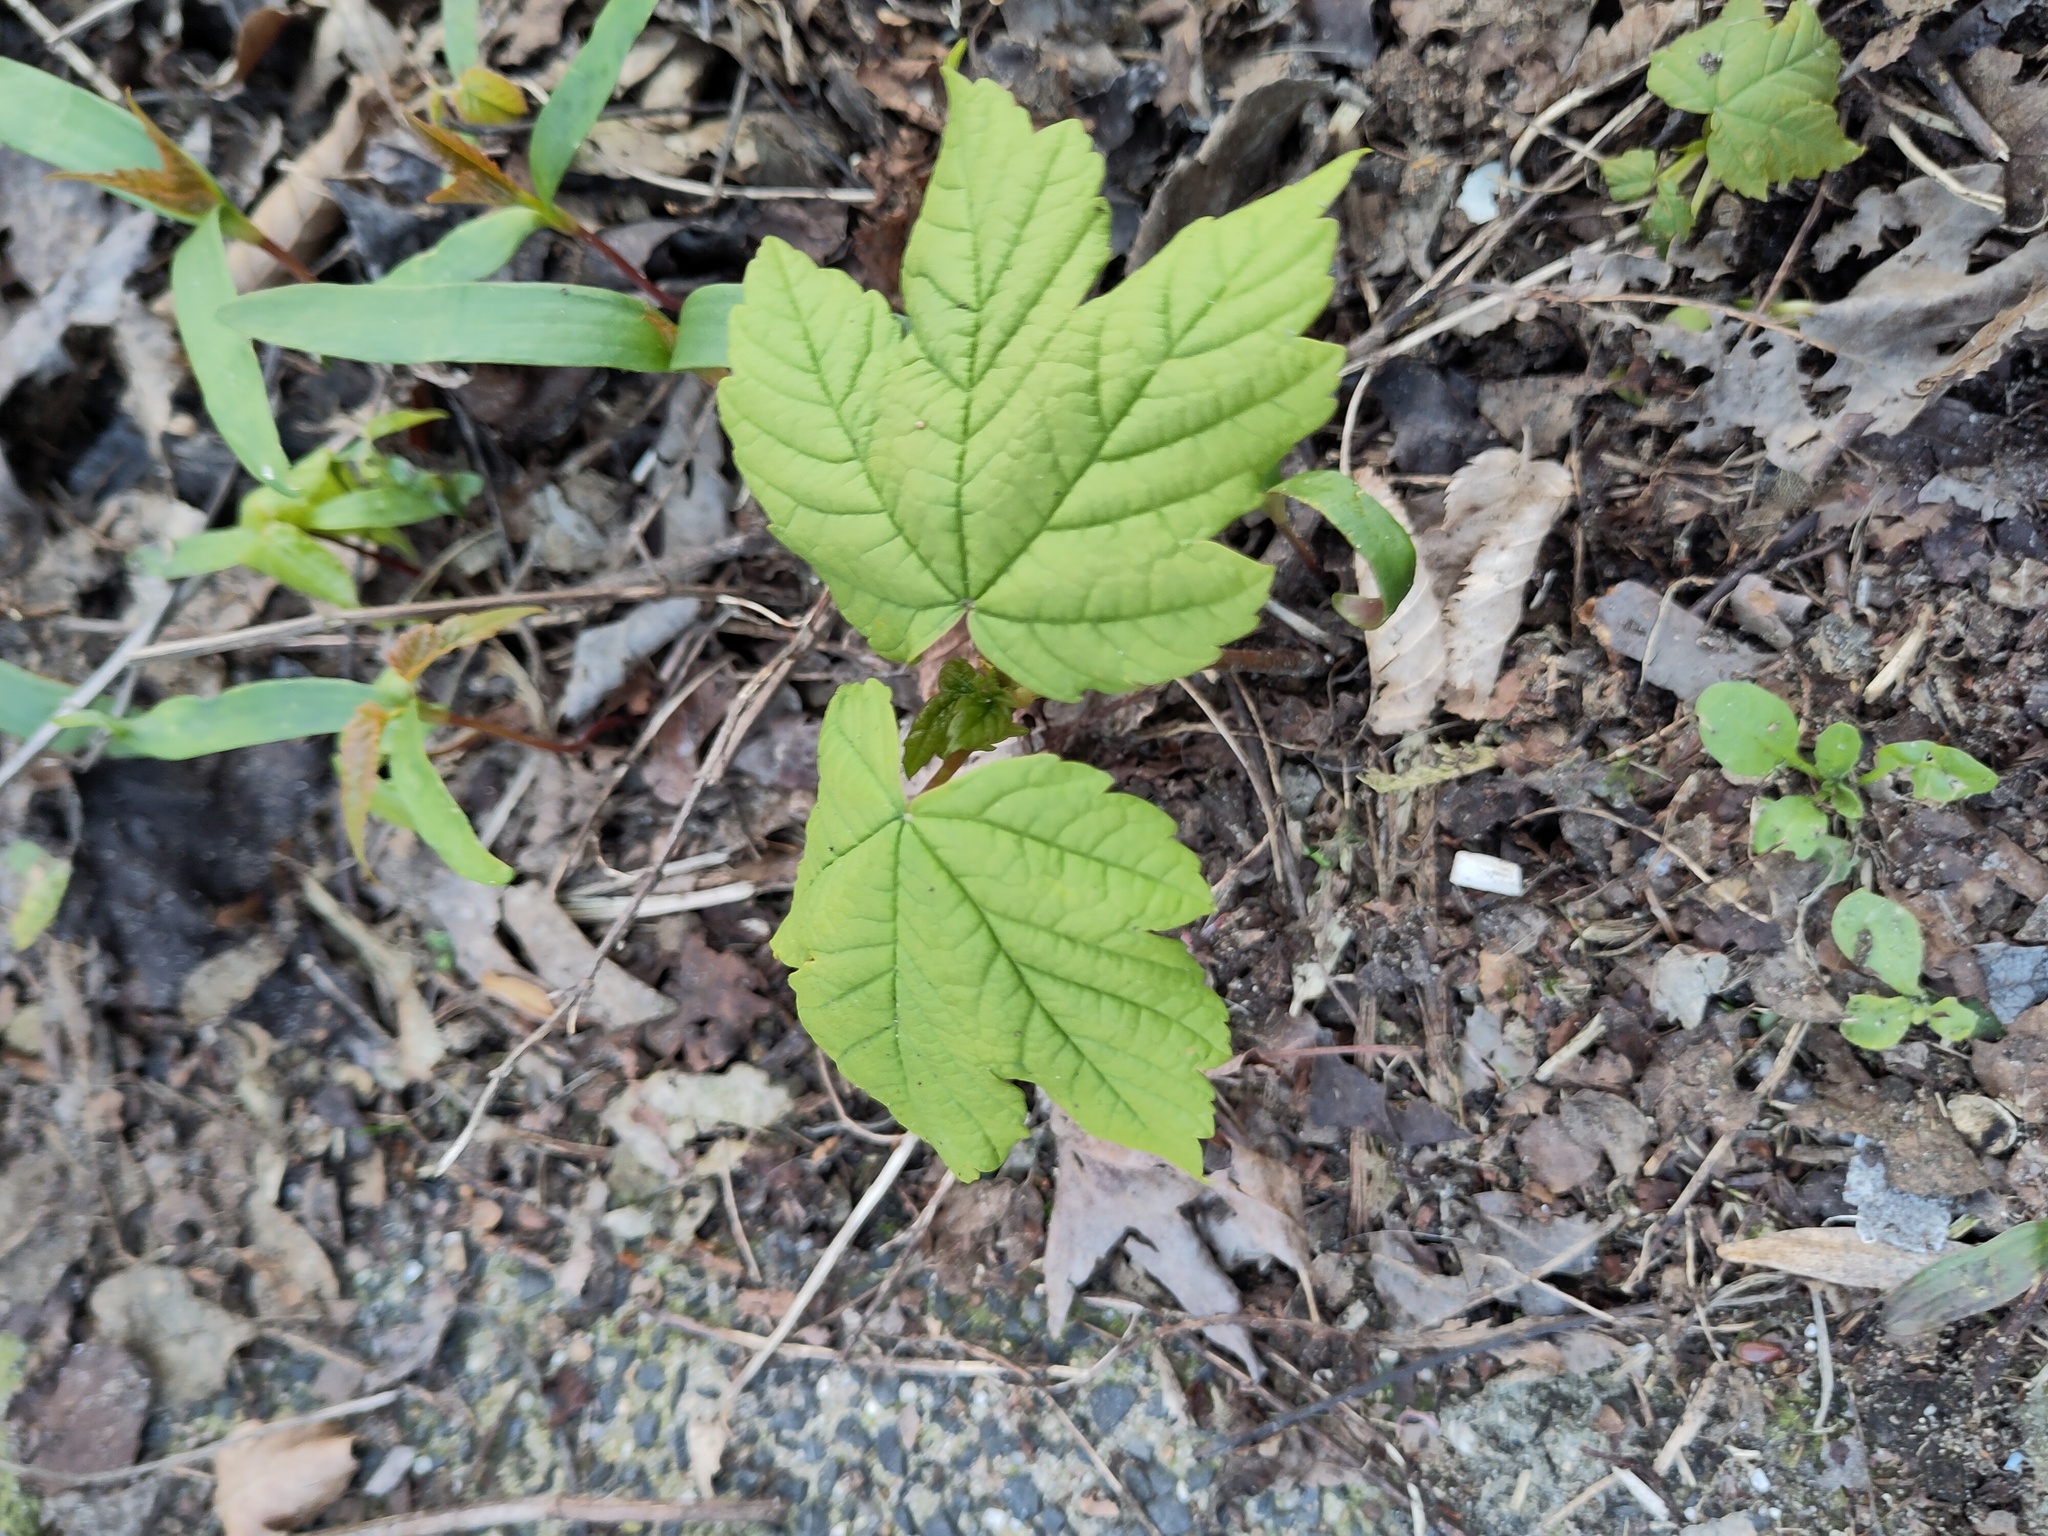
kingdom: Plantae
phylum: Tracheophyta
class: Magnoliopsida
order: Sapindales
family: Sapindaceae
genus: Acer
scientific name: Acer pseudoplatanus
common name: Sycamore
